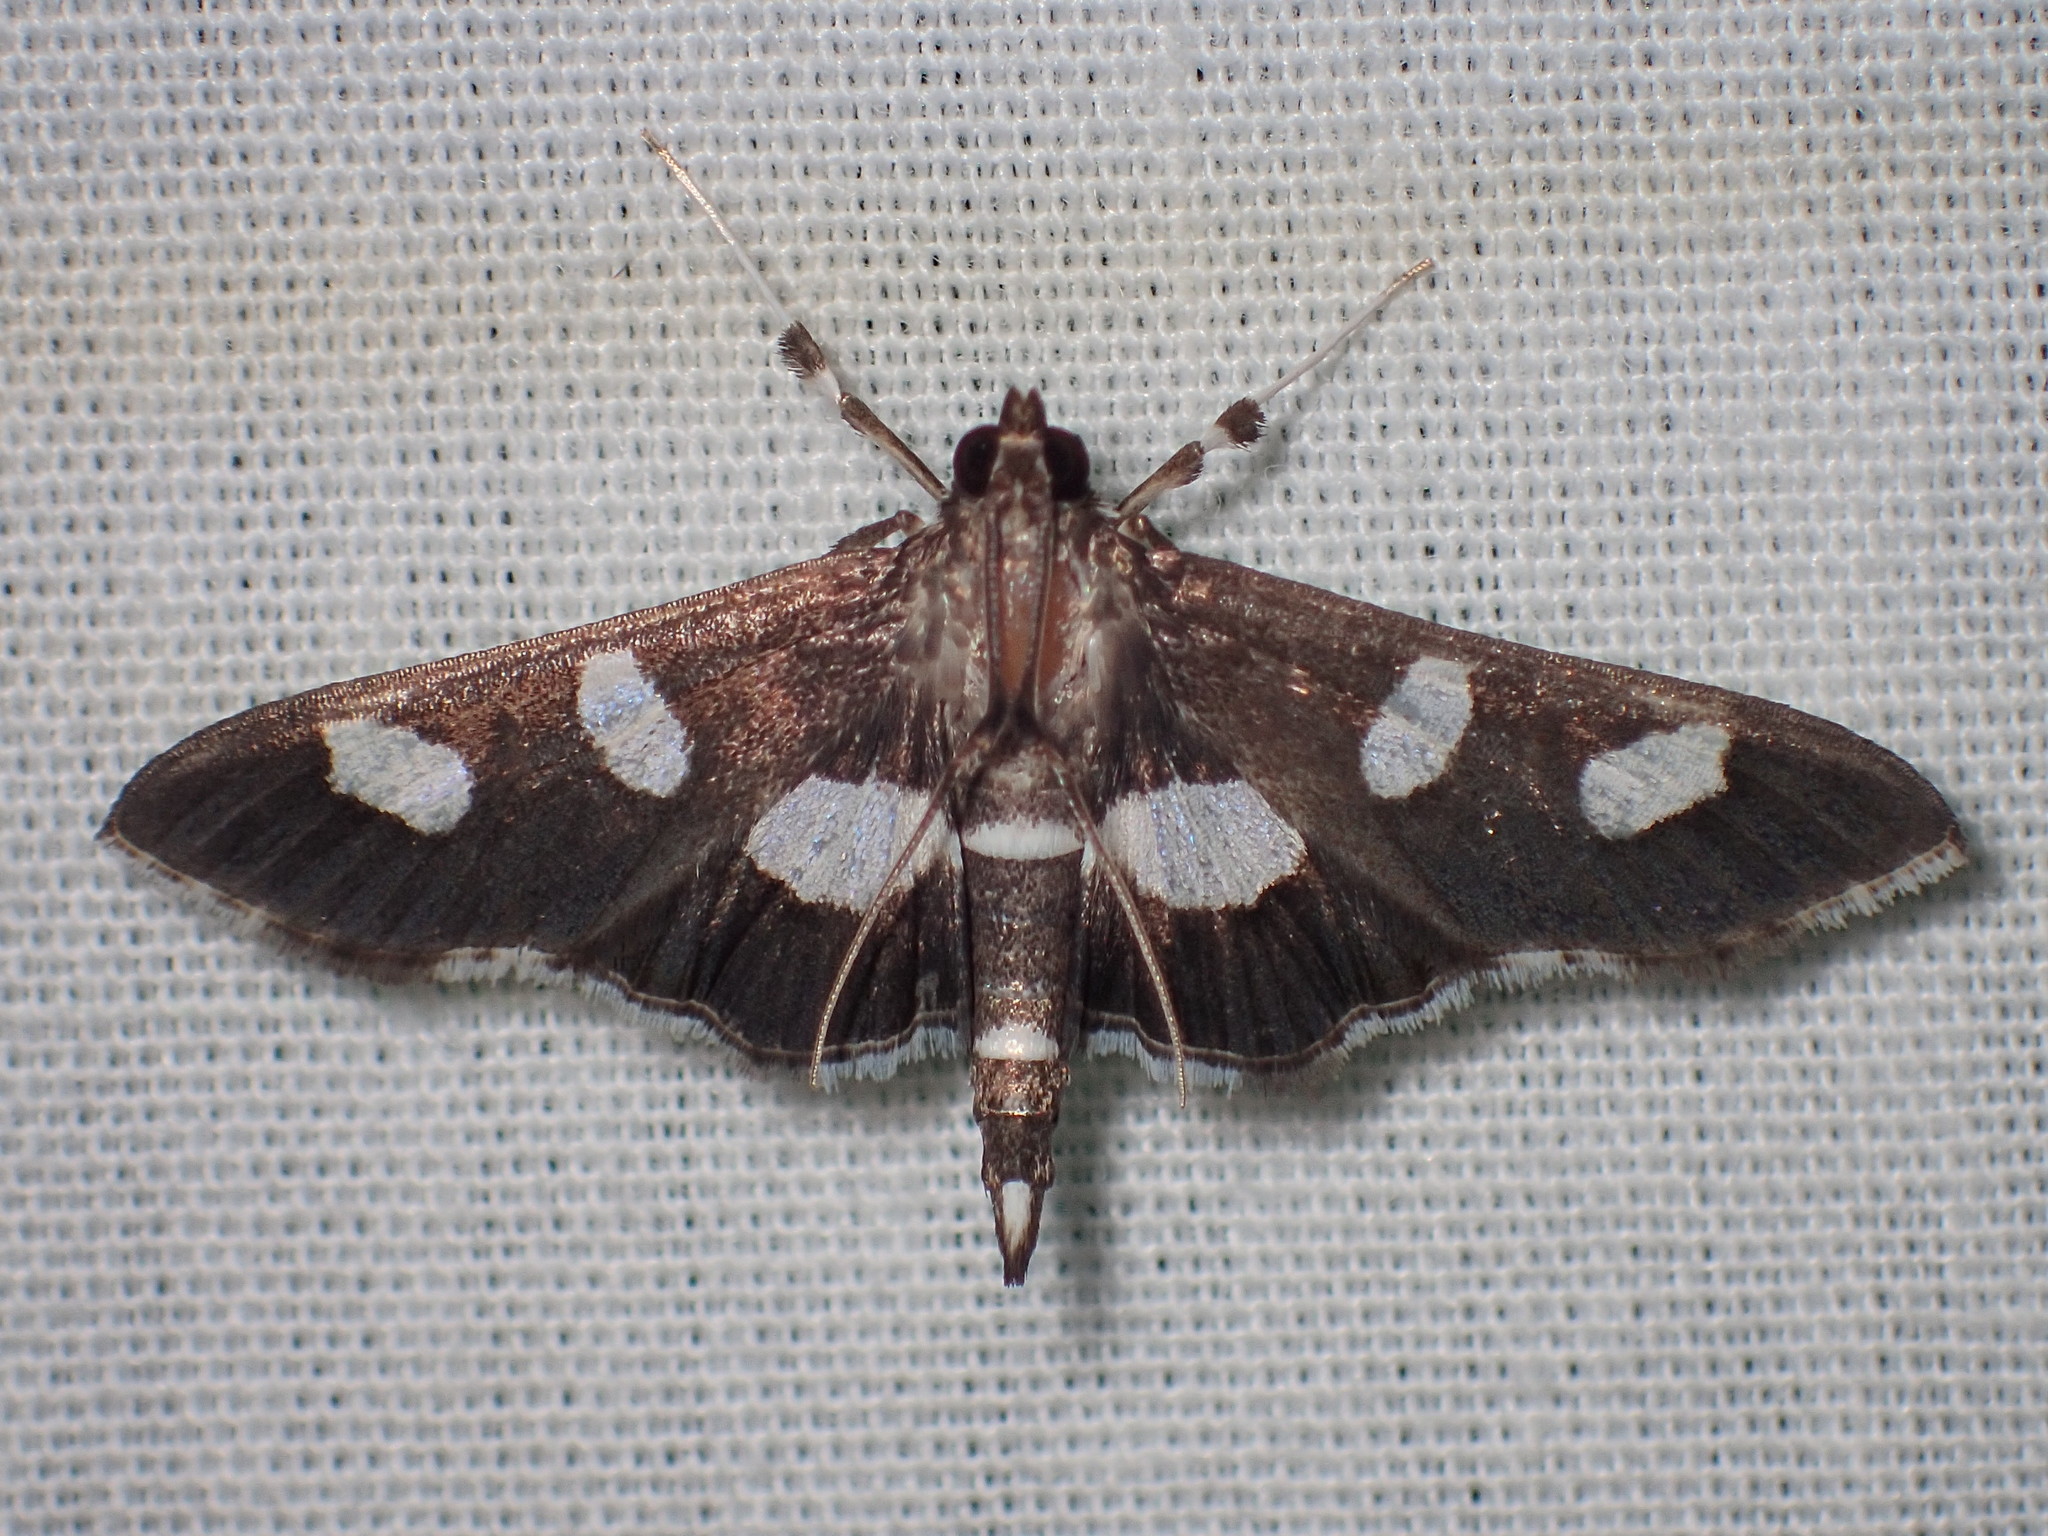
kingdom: Animalia
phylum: Arthropoda
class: Insecta
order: Lepidoptera
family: Crambidae
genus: Desmia
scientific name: Desmia
